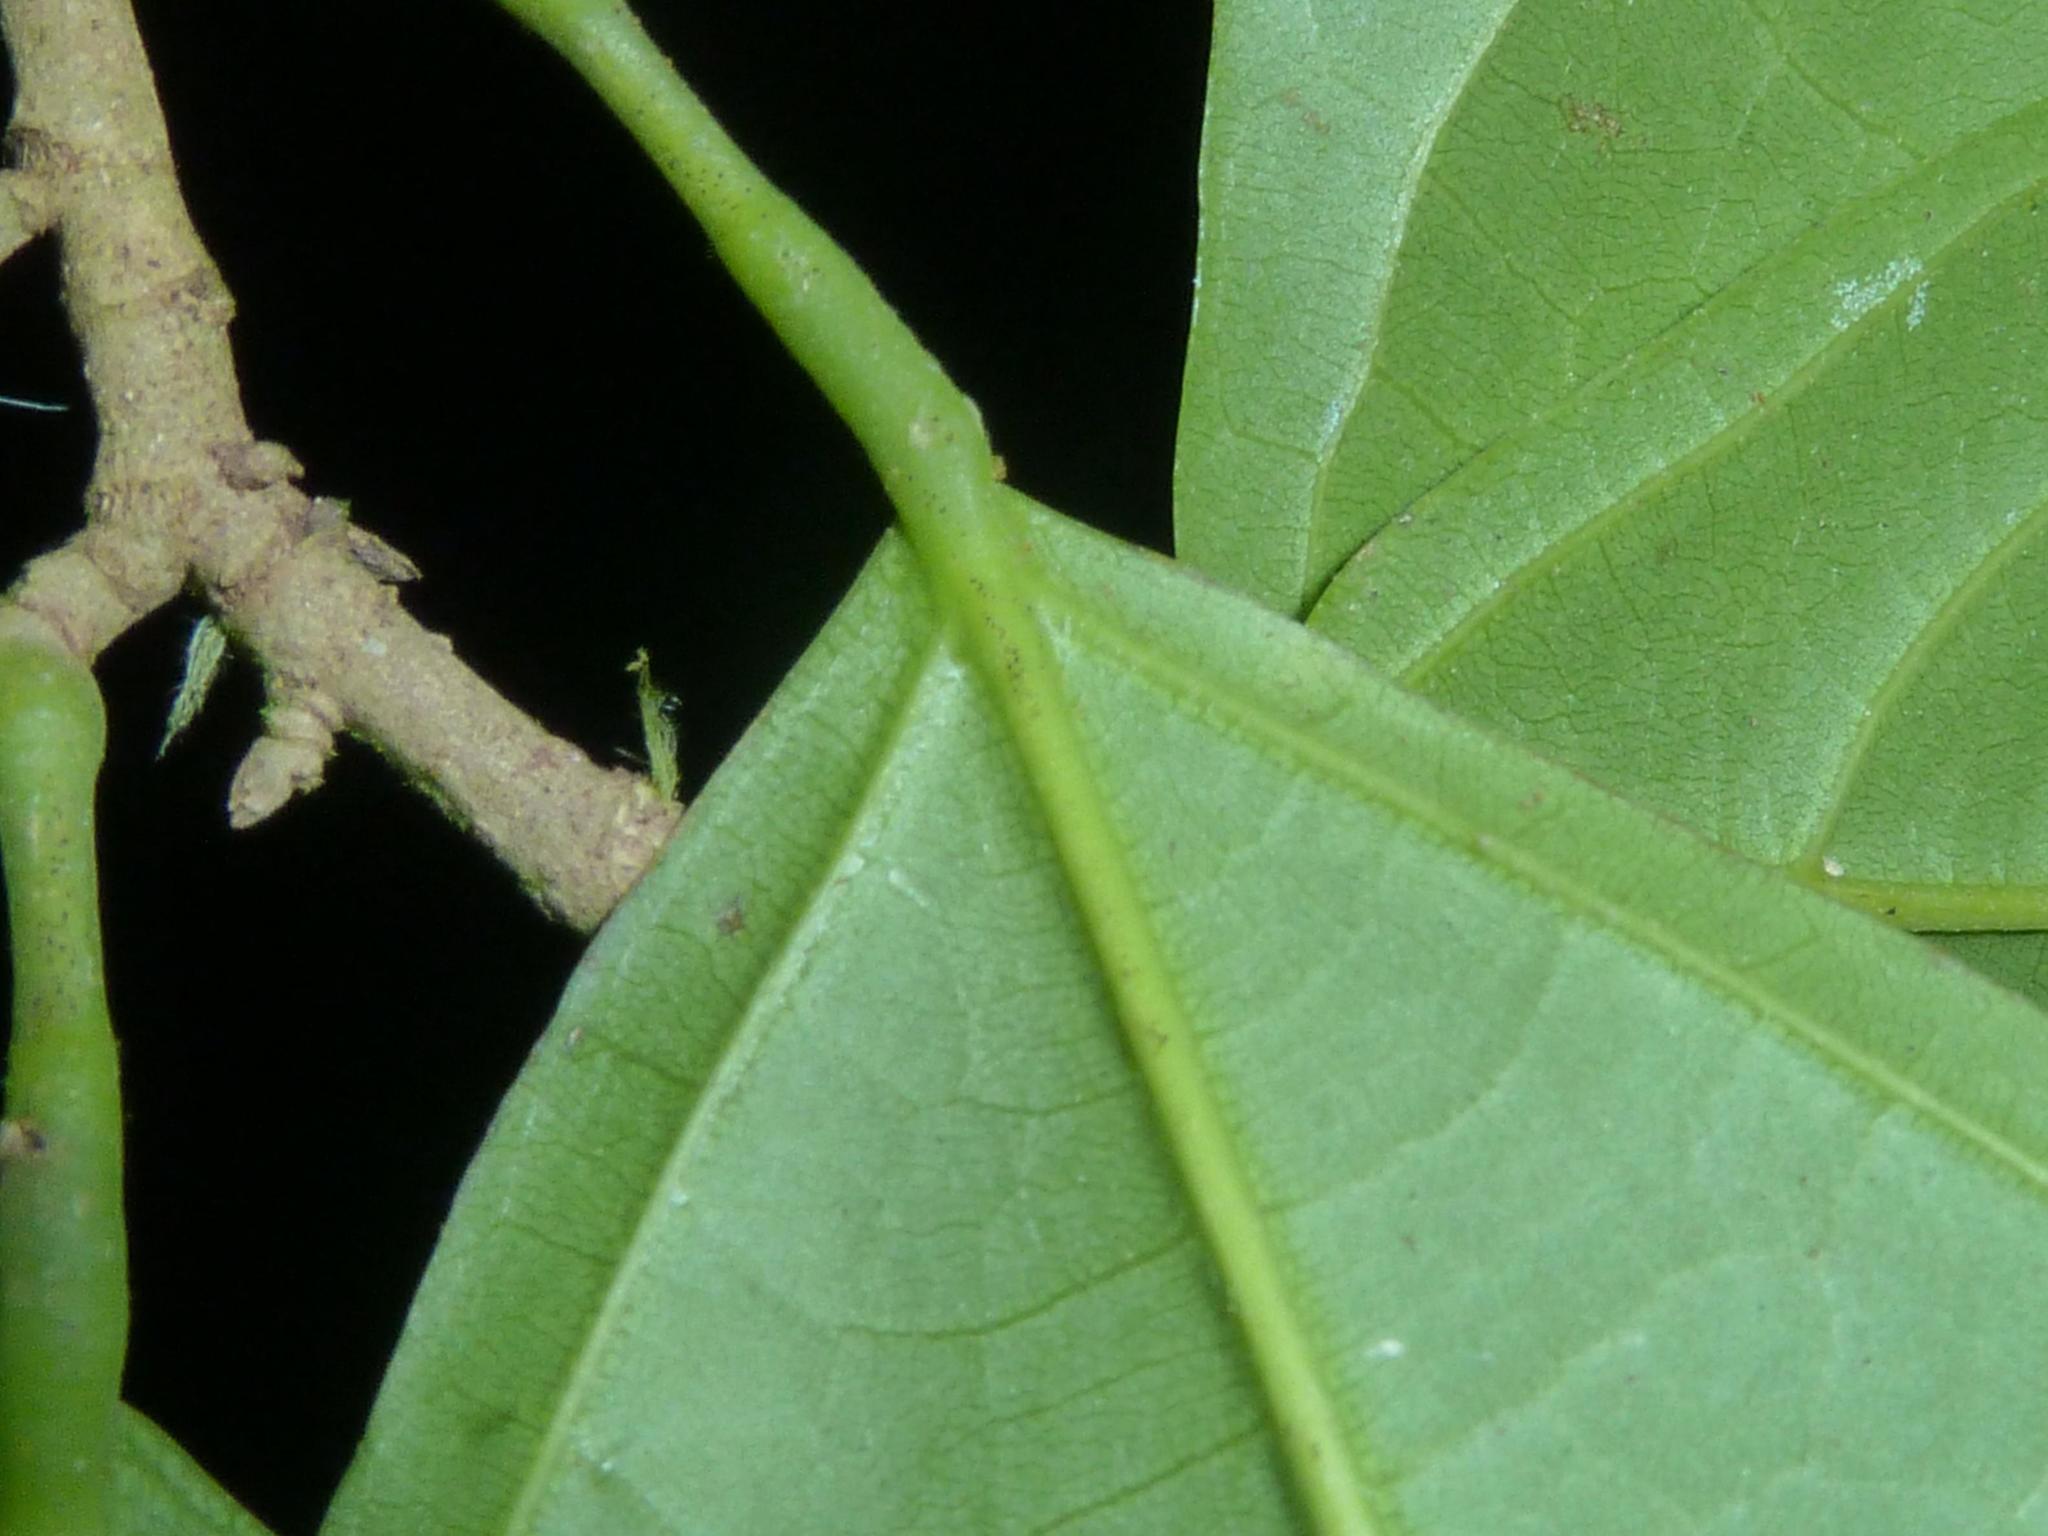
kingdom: Plantae
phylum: Tracheophyta
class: Magnoliopsida
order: Malvales
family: Malvaceae
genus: Quararibea
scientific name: Quararibea asterolepis
